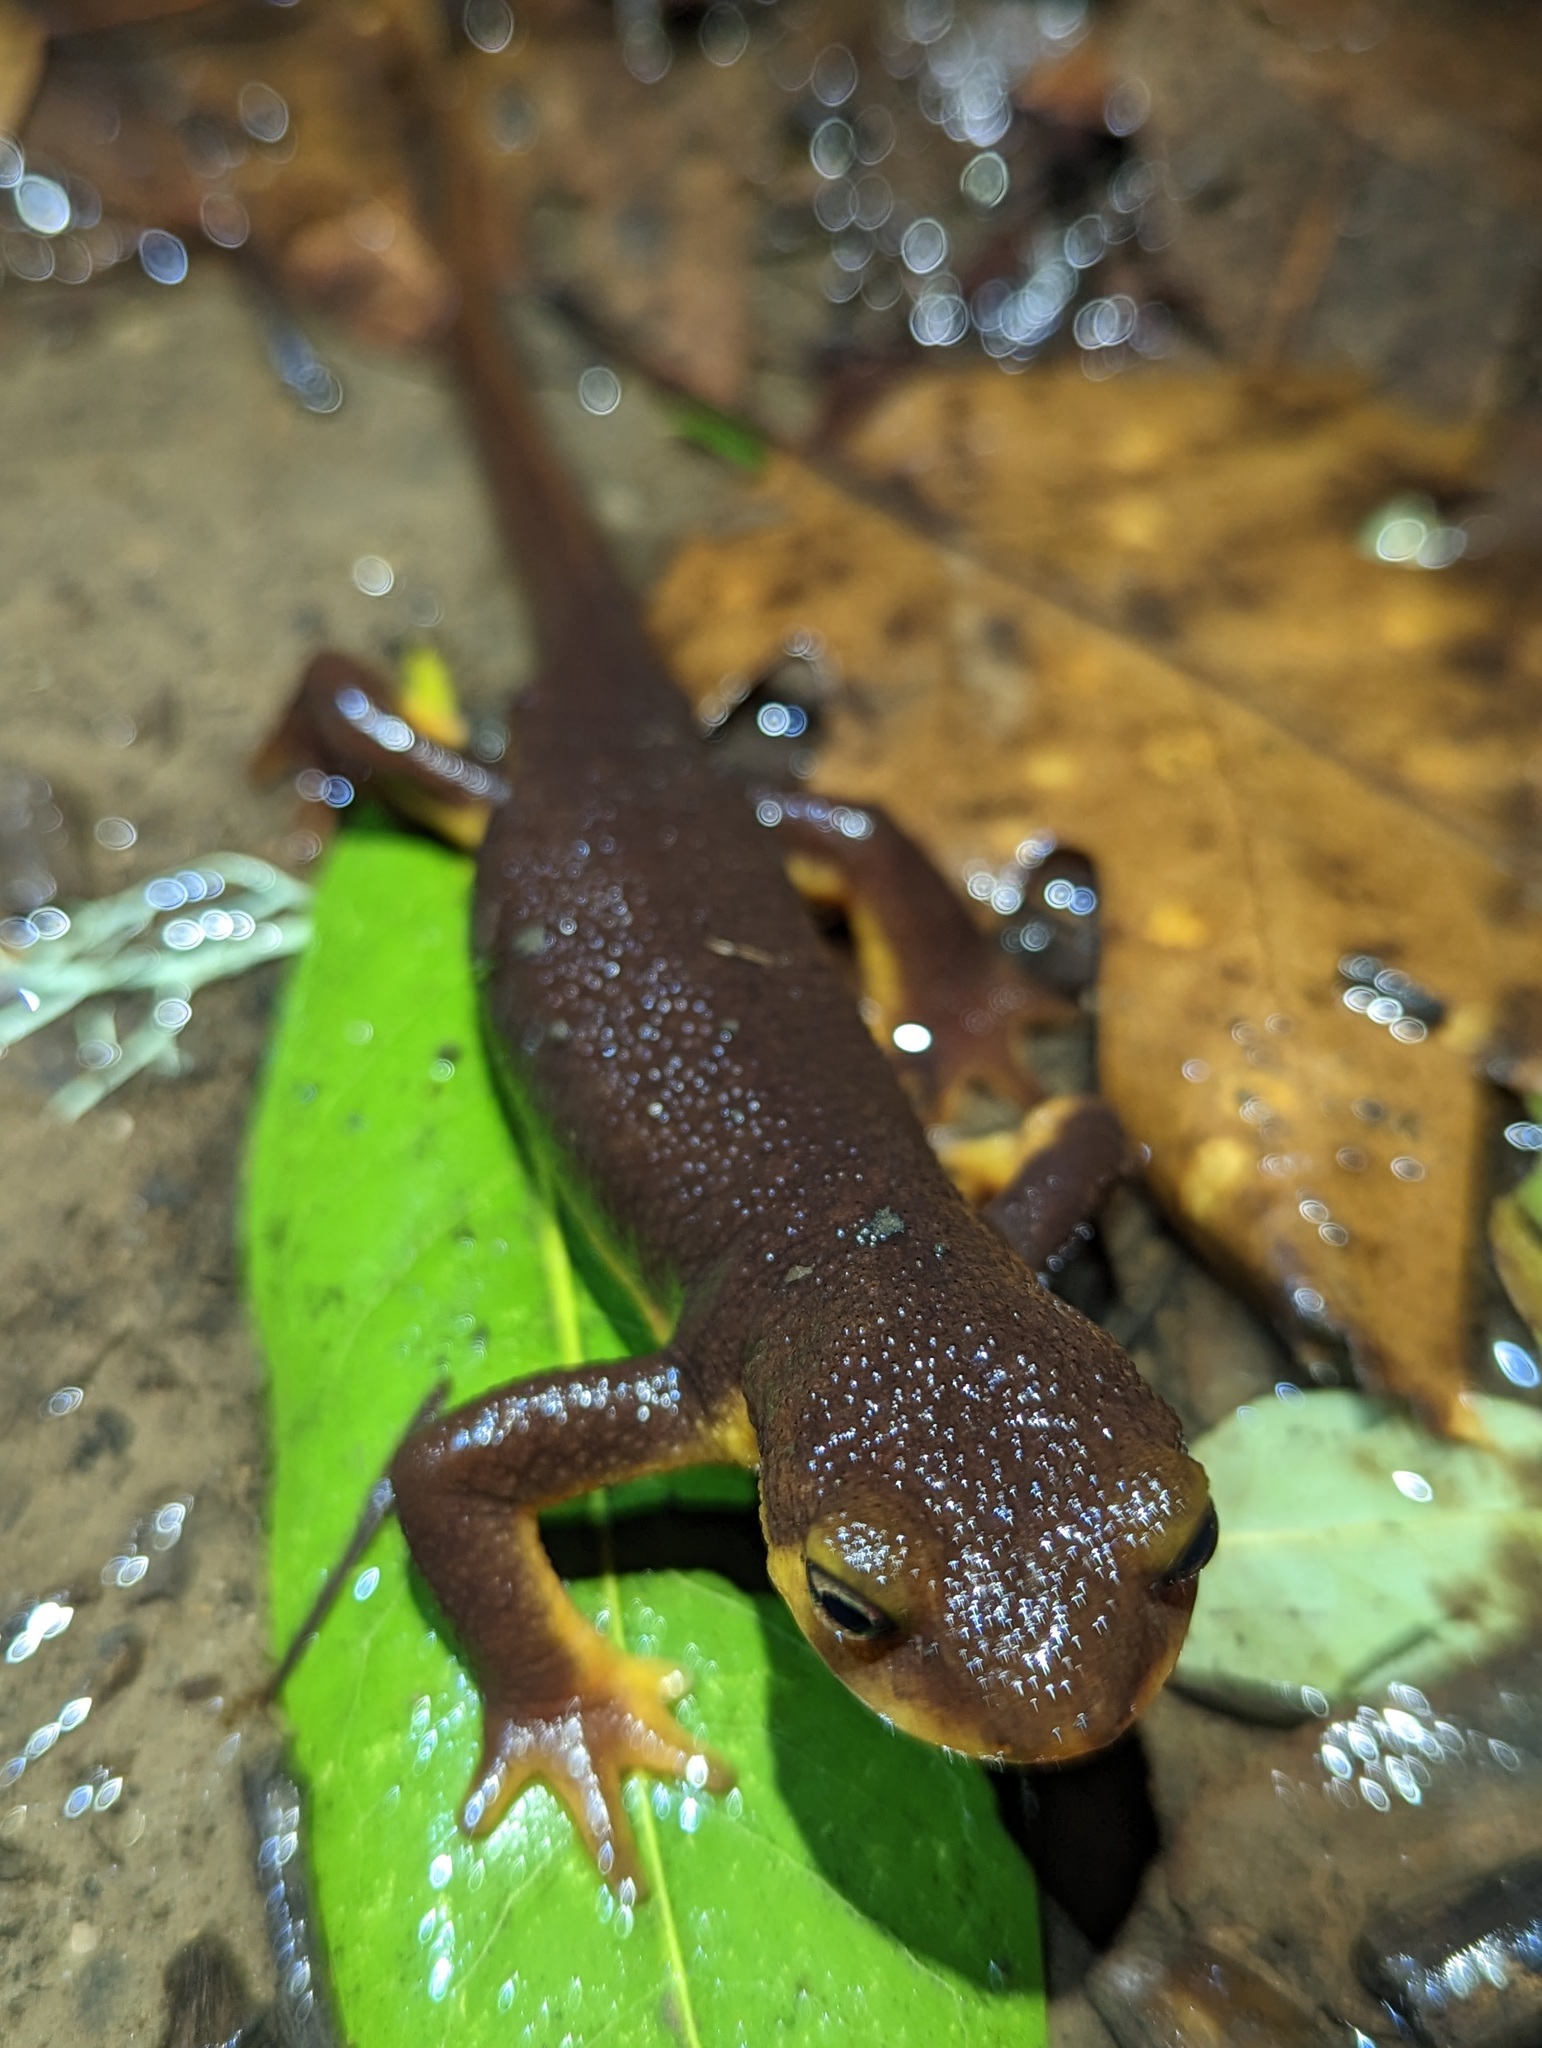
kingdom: Animalia
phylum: Chordata
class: Amphibia
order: Caudata
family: Salamandridae
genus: Taricha
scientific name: Taricha torosa
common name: California newt
